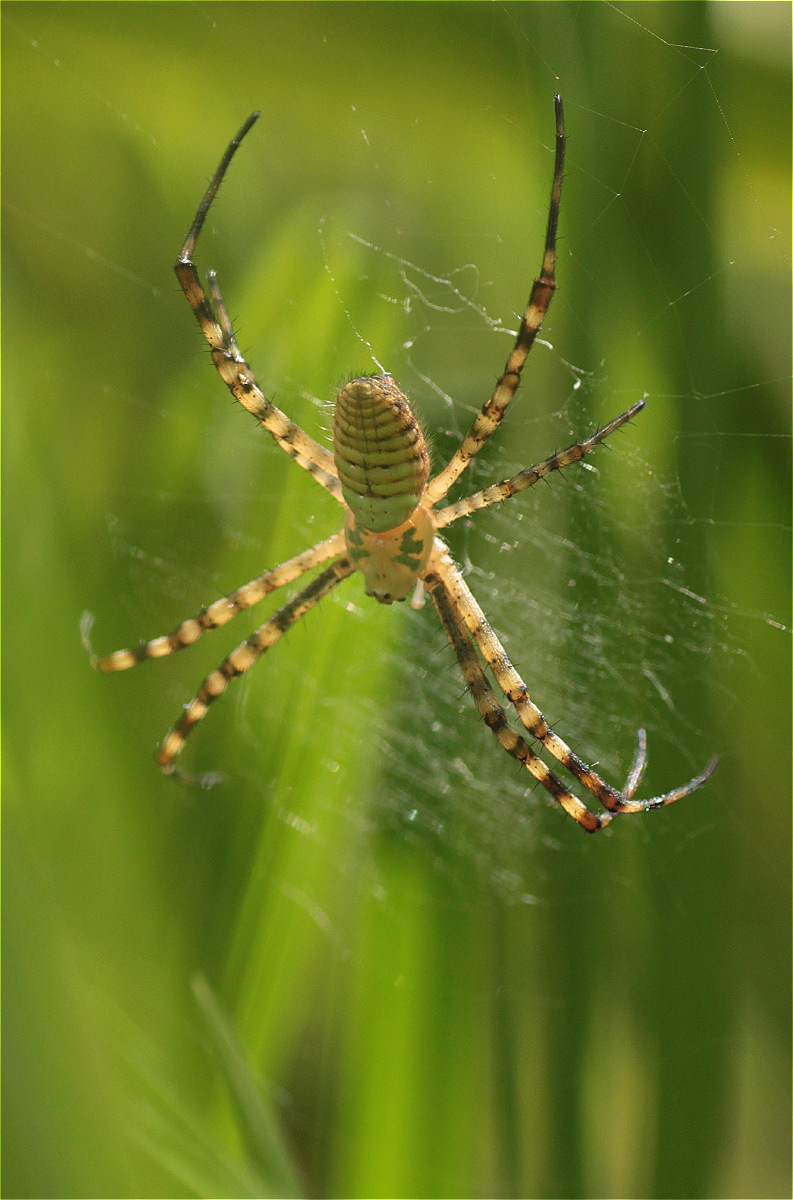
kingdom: Animalia
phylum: Arthropoda
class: Arachnida
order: Araneae
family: Araneidae
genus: Argiope
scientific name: Argiope trifasciata
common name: Banded garden spider
